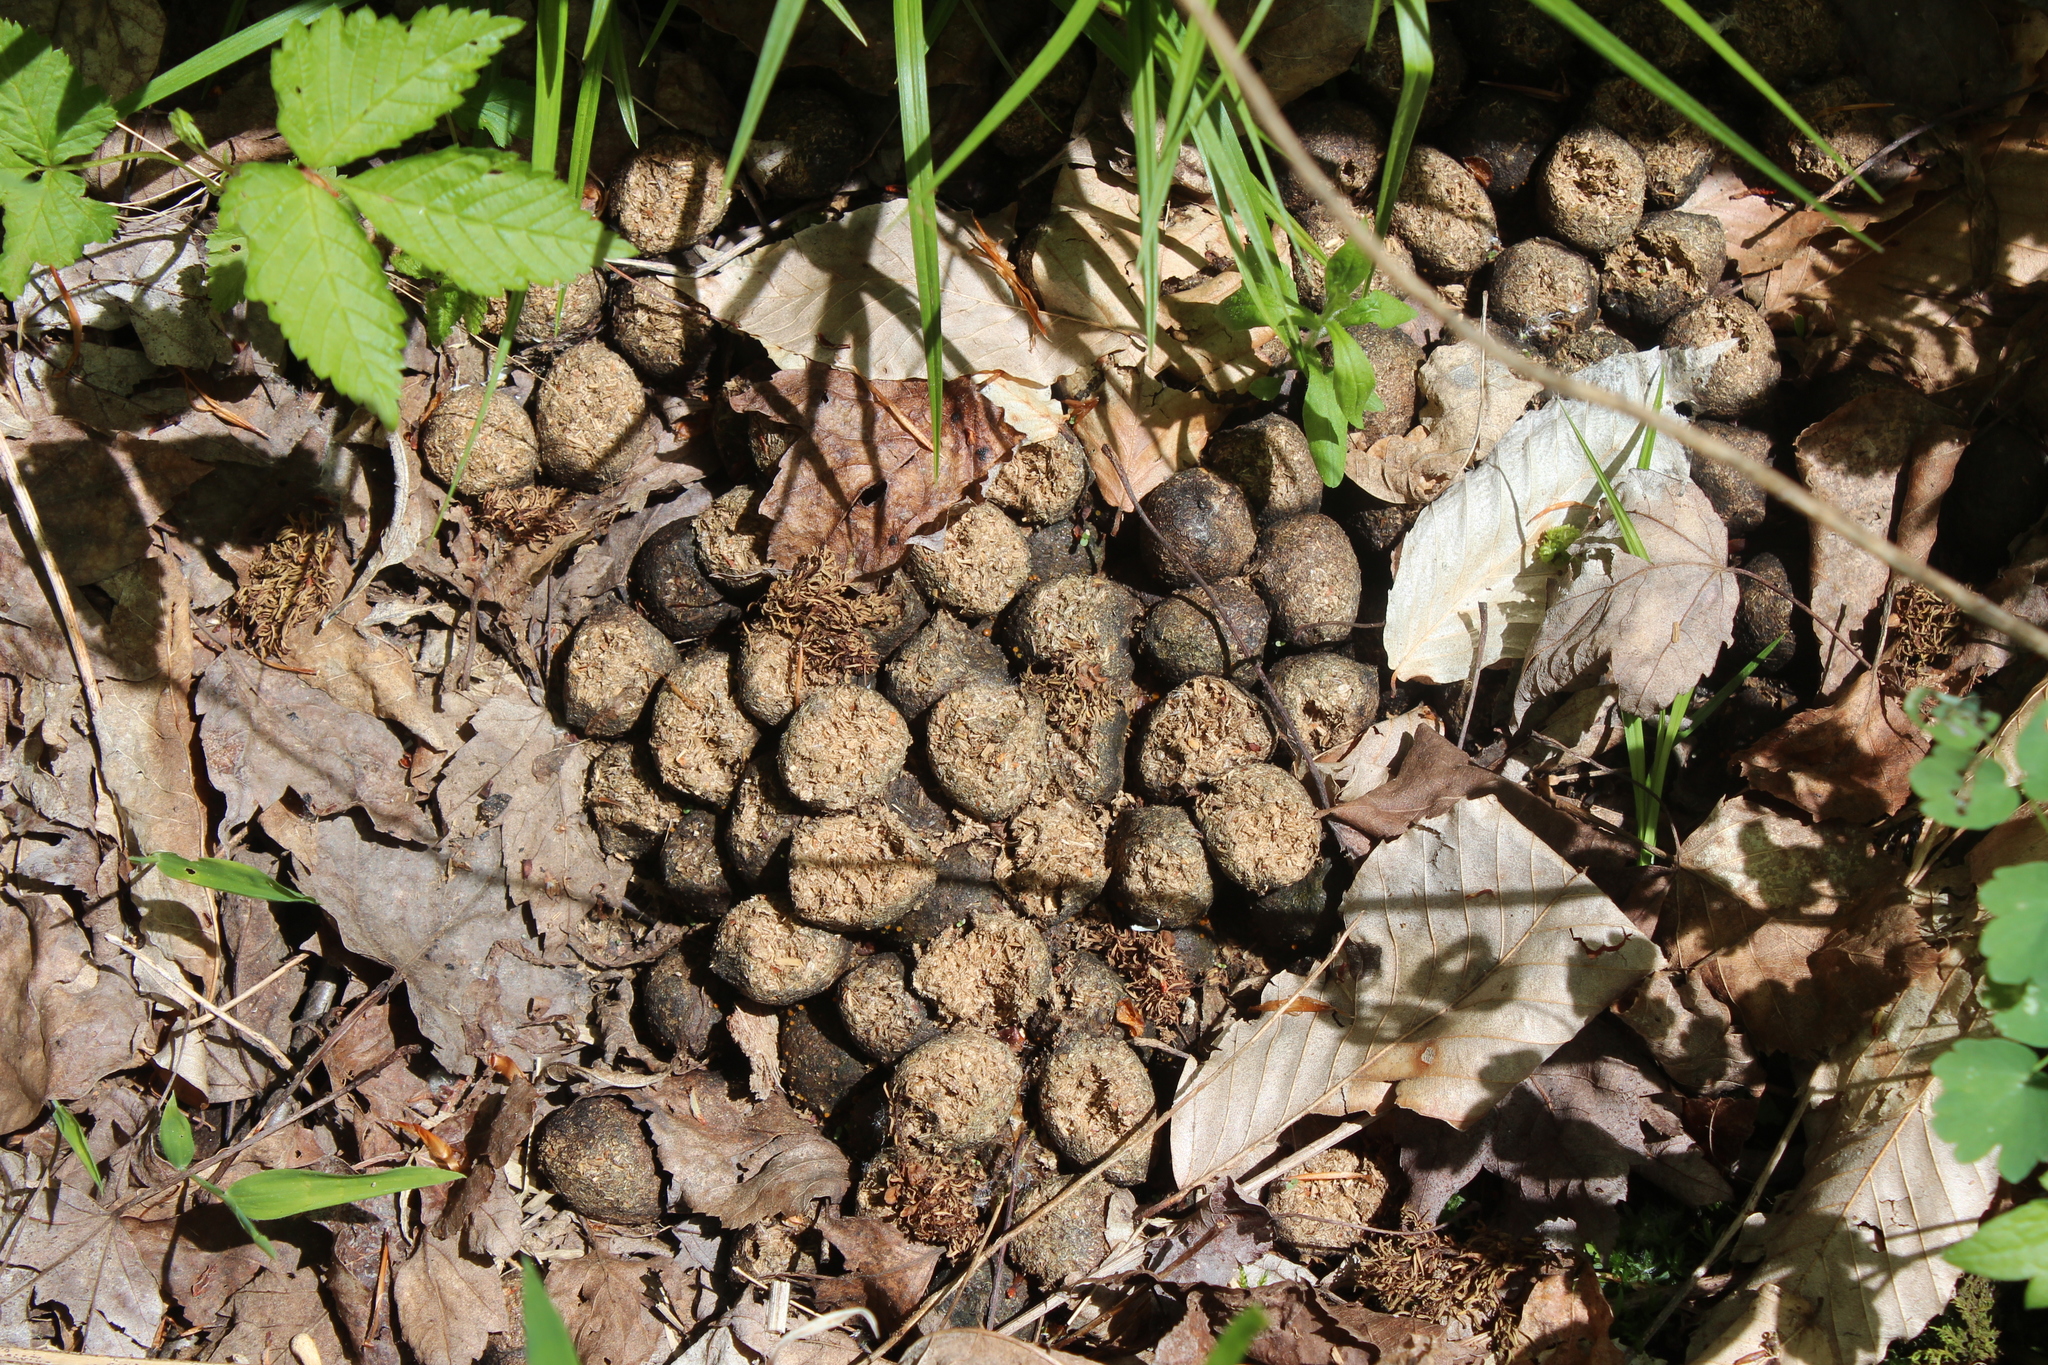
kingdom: Animalia
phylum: Chordata
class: Mammalia
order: Artiodactyla
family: Cervidae
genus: Alces
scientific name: Alces alces
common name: Moose
